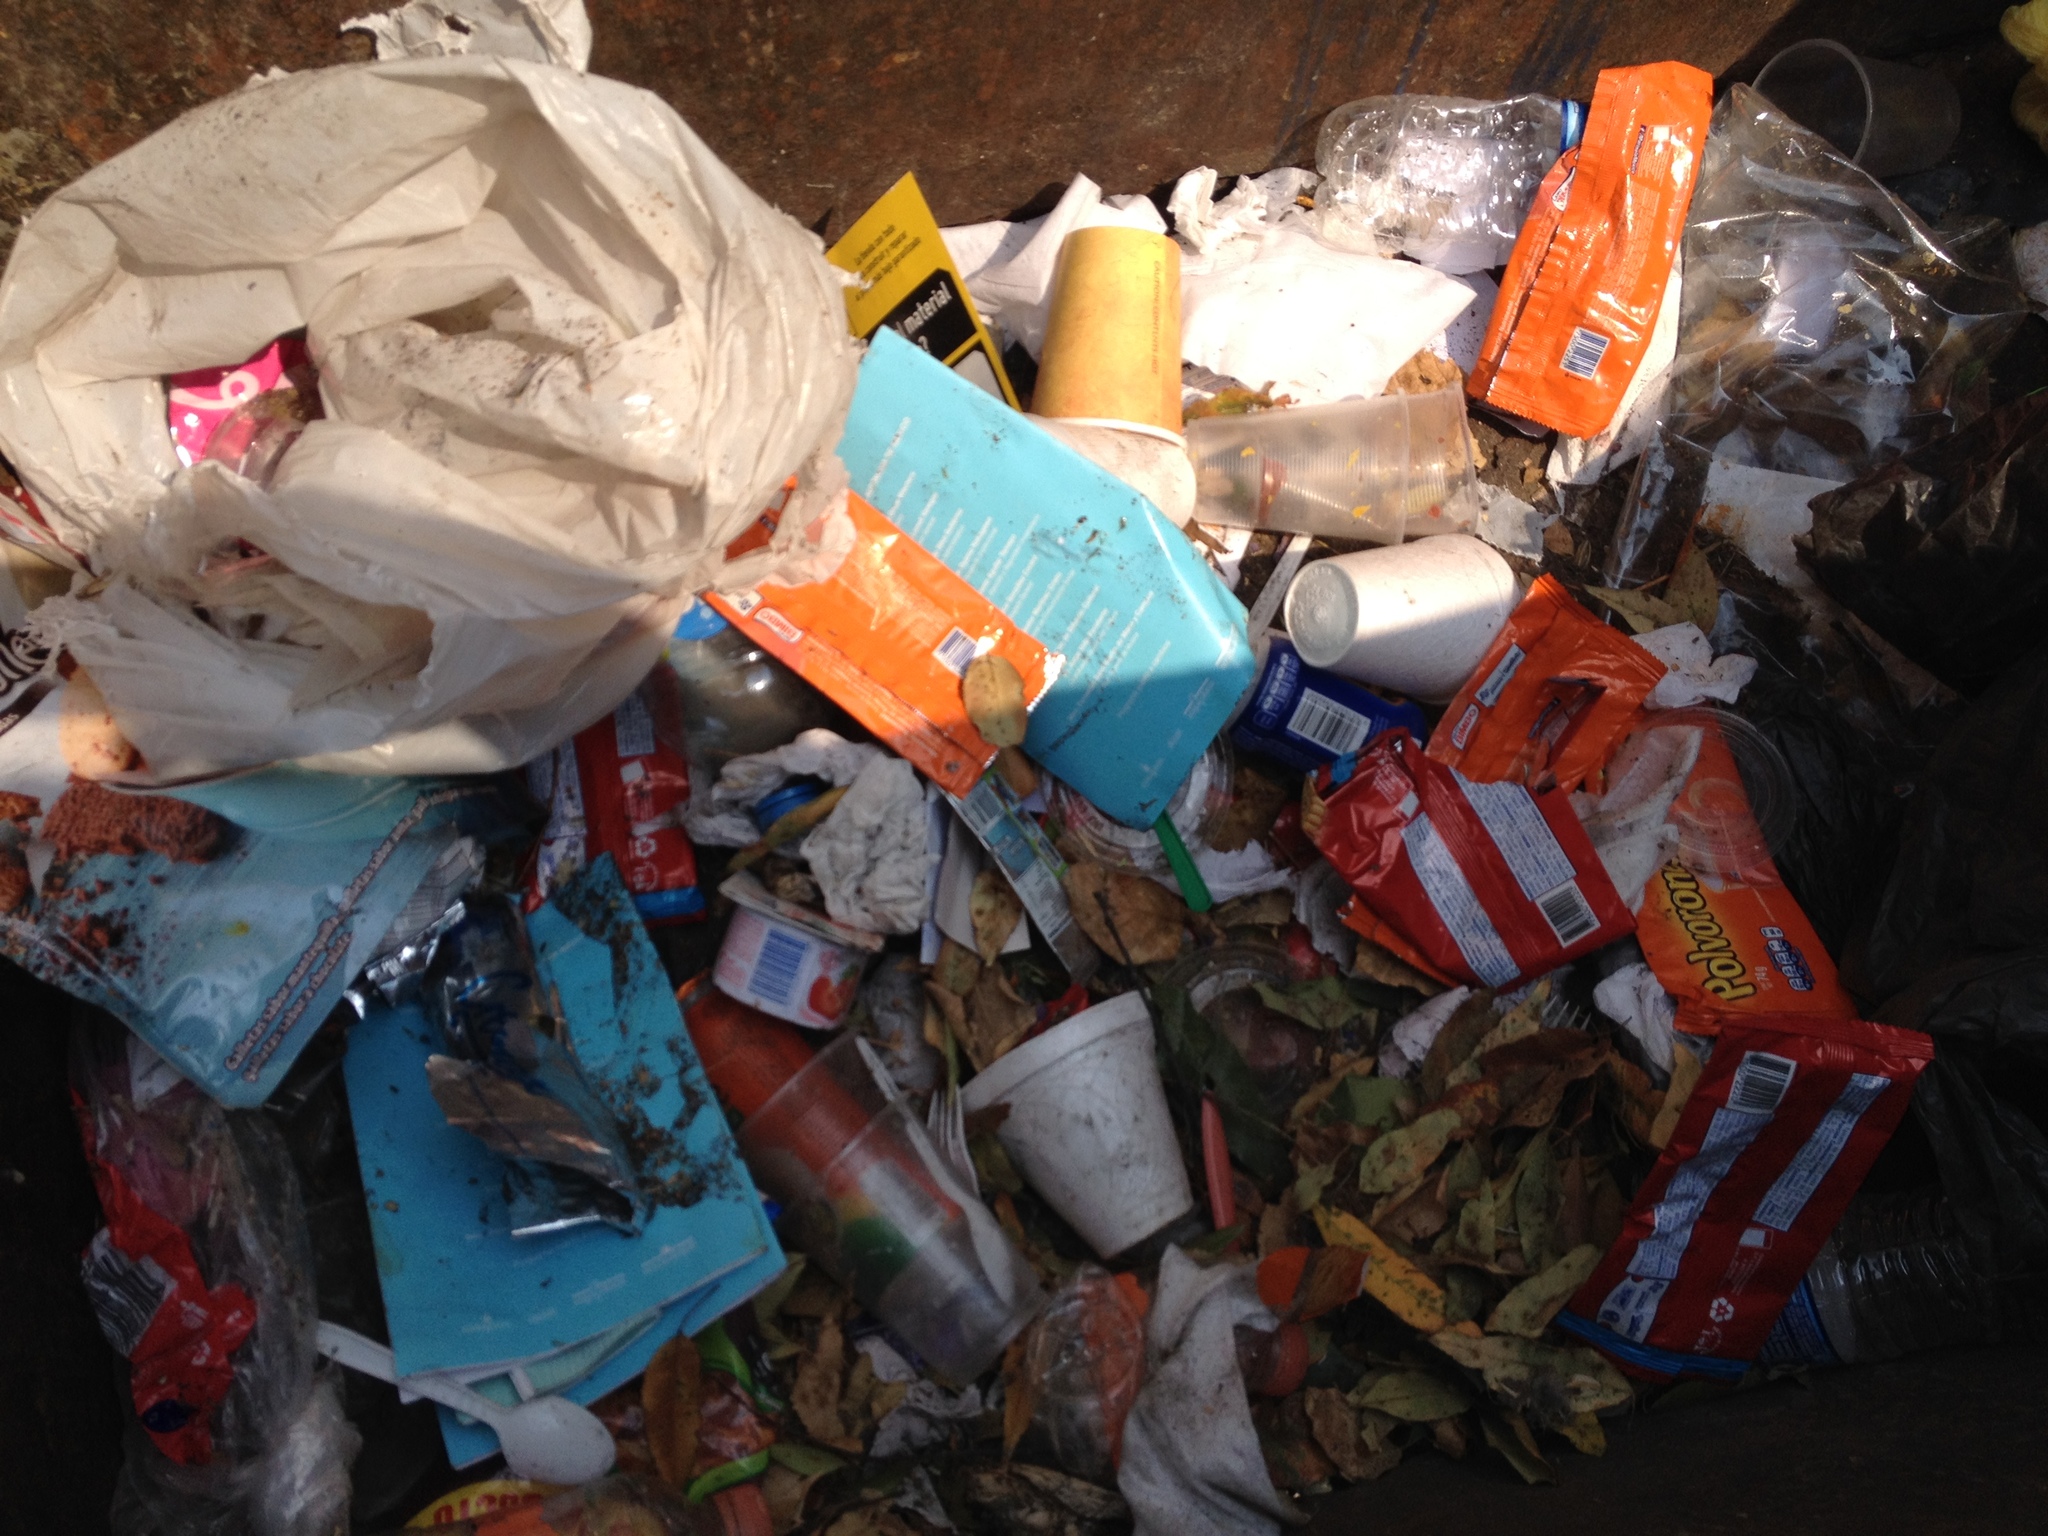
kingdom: Animalia
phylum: Chordata
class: Mammalia
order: Didelphimorphia
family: Didelphidae
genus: Didelphis
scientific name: Didelphis virginiana
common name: Virginia opossum
